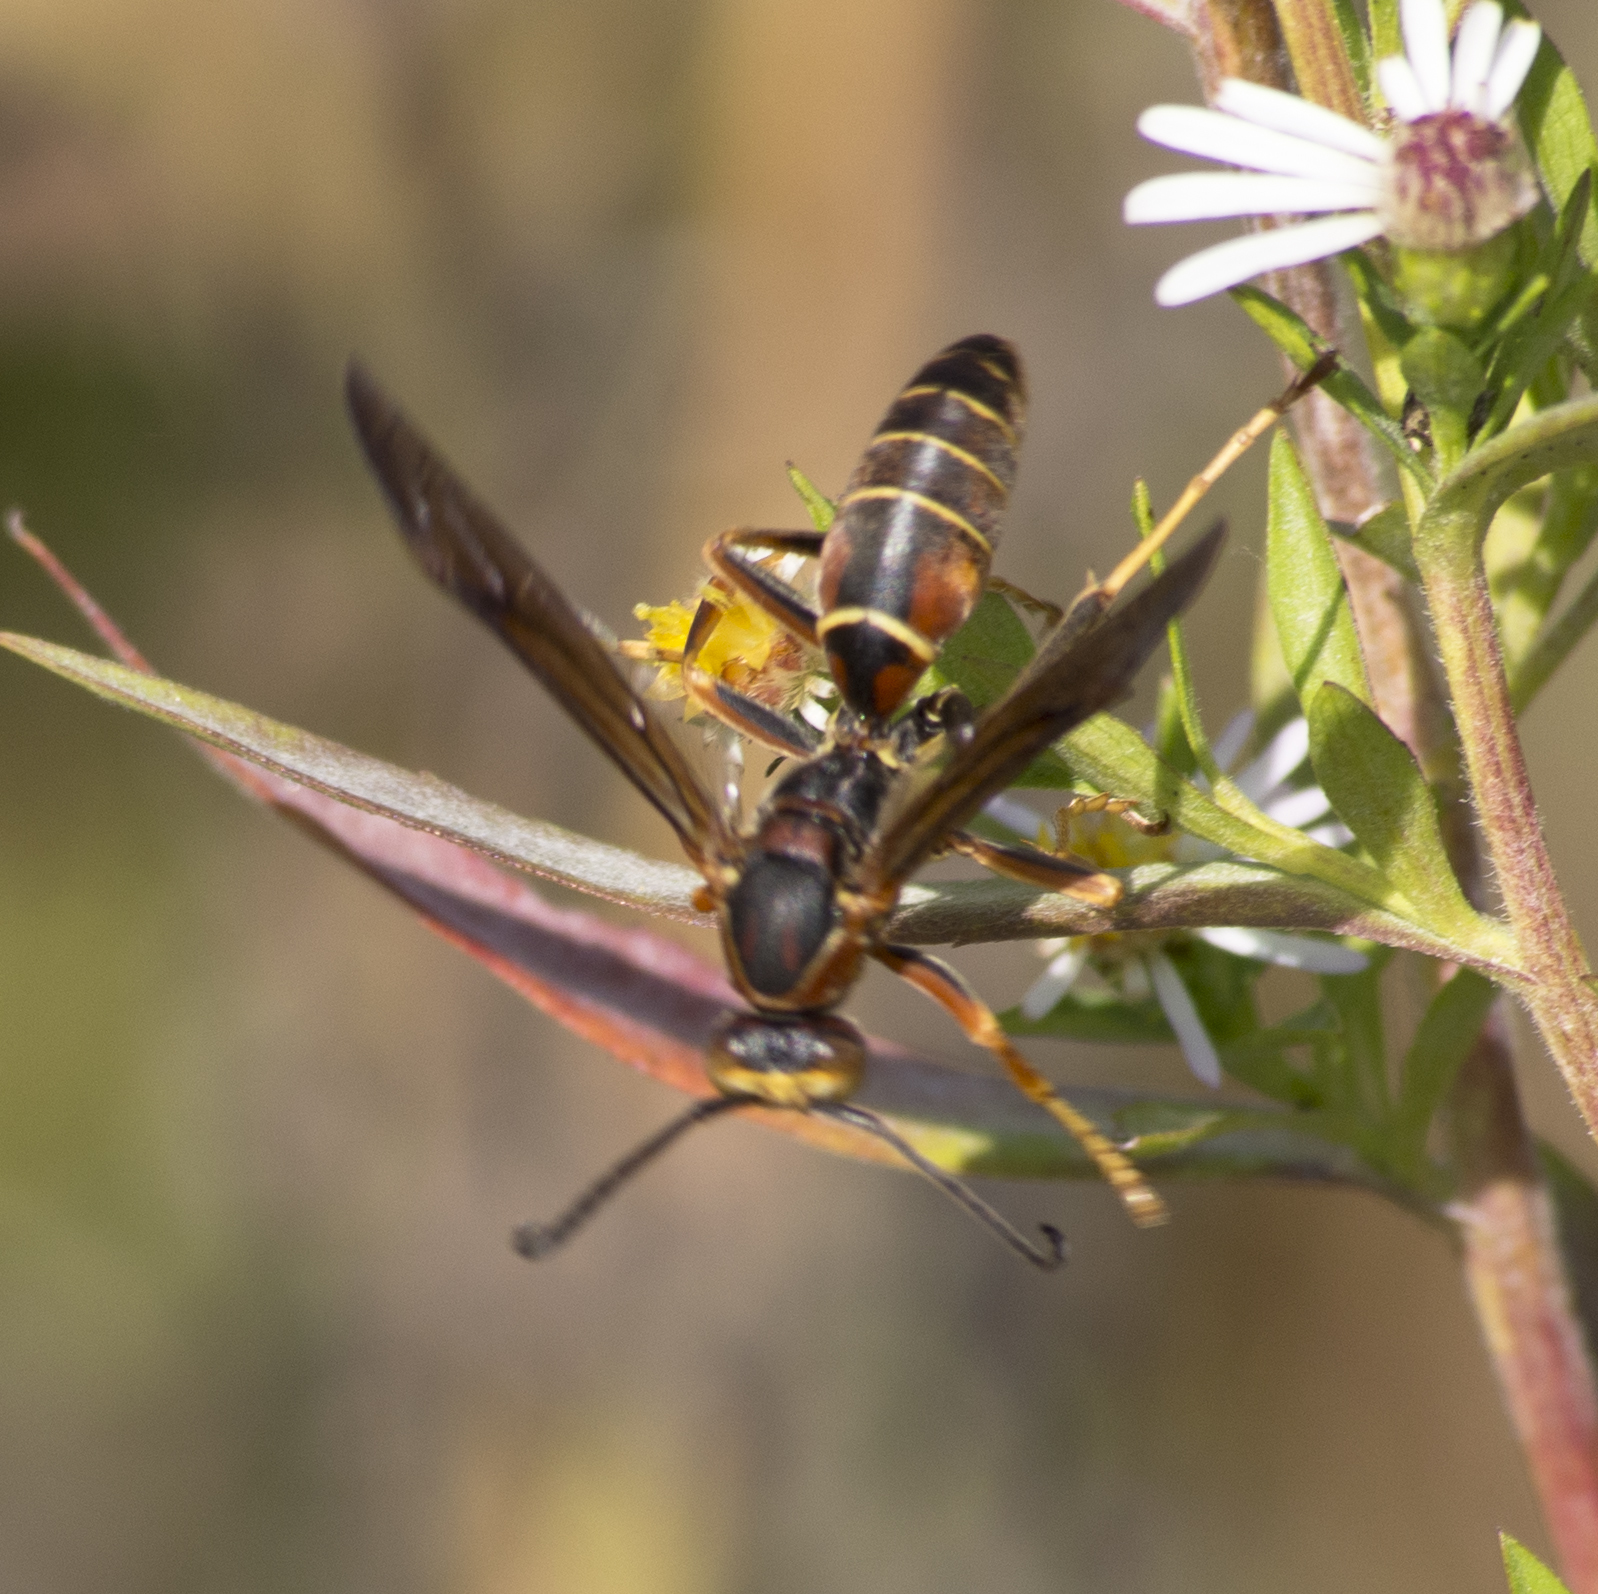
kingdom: Animalia
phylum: Arthropoda
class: Insecta
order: Hymenoptera
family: Eumenidae
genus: Polistes
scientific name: Polistes fuscatus
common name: Dark paper wasp
